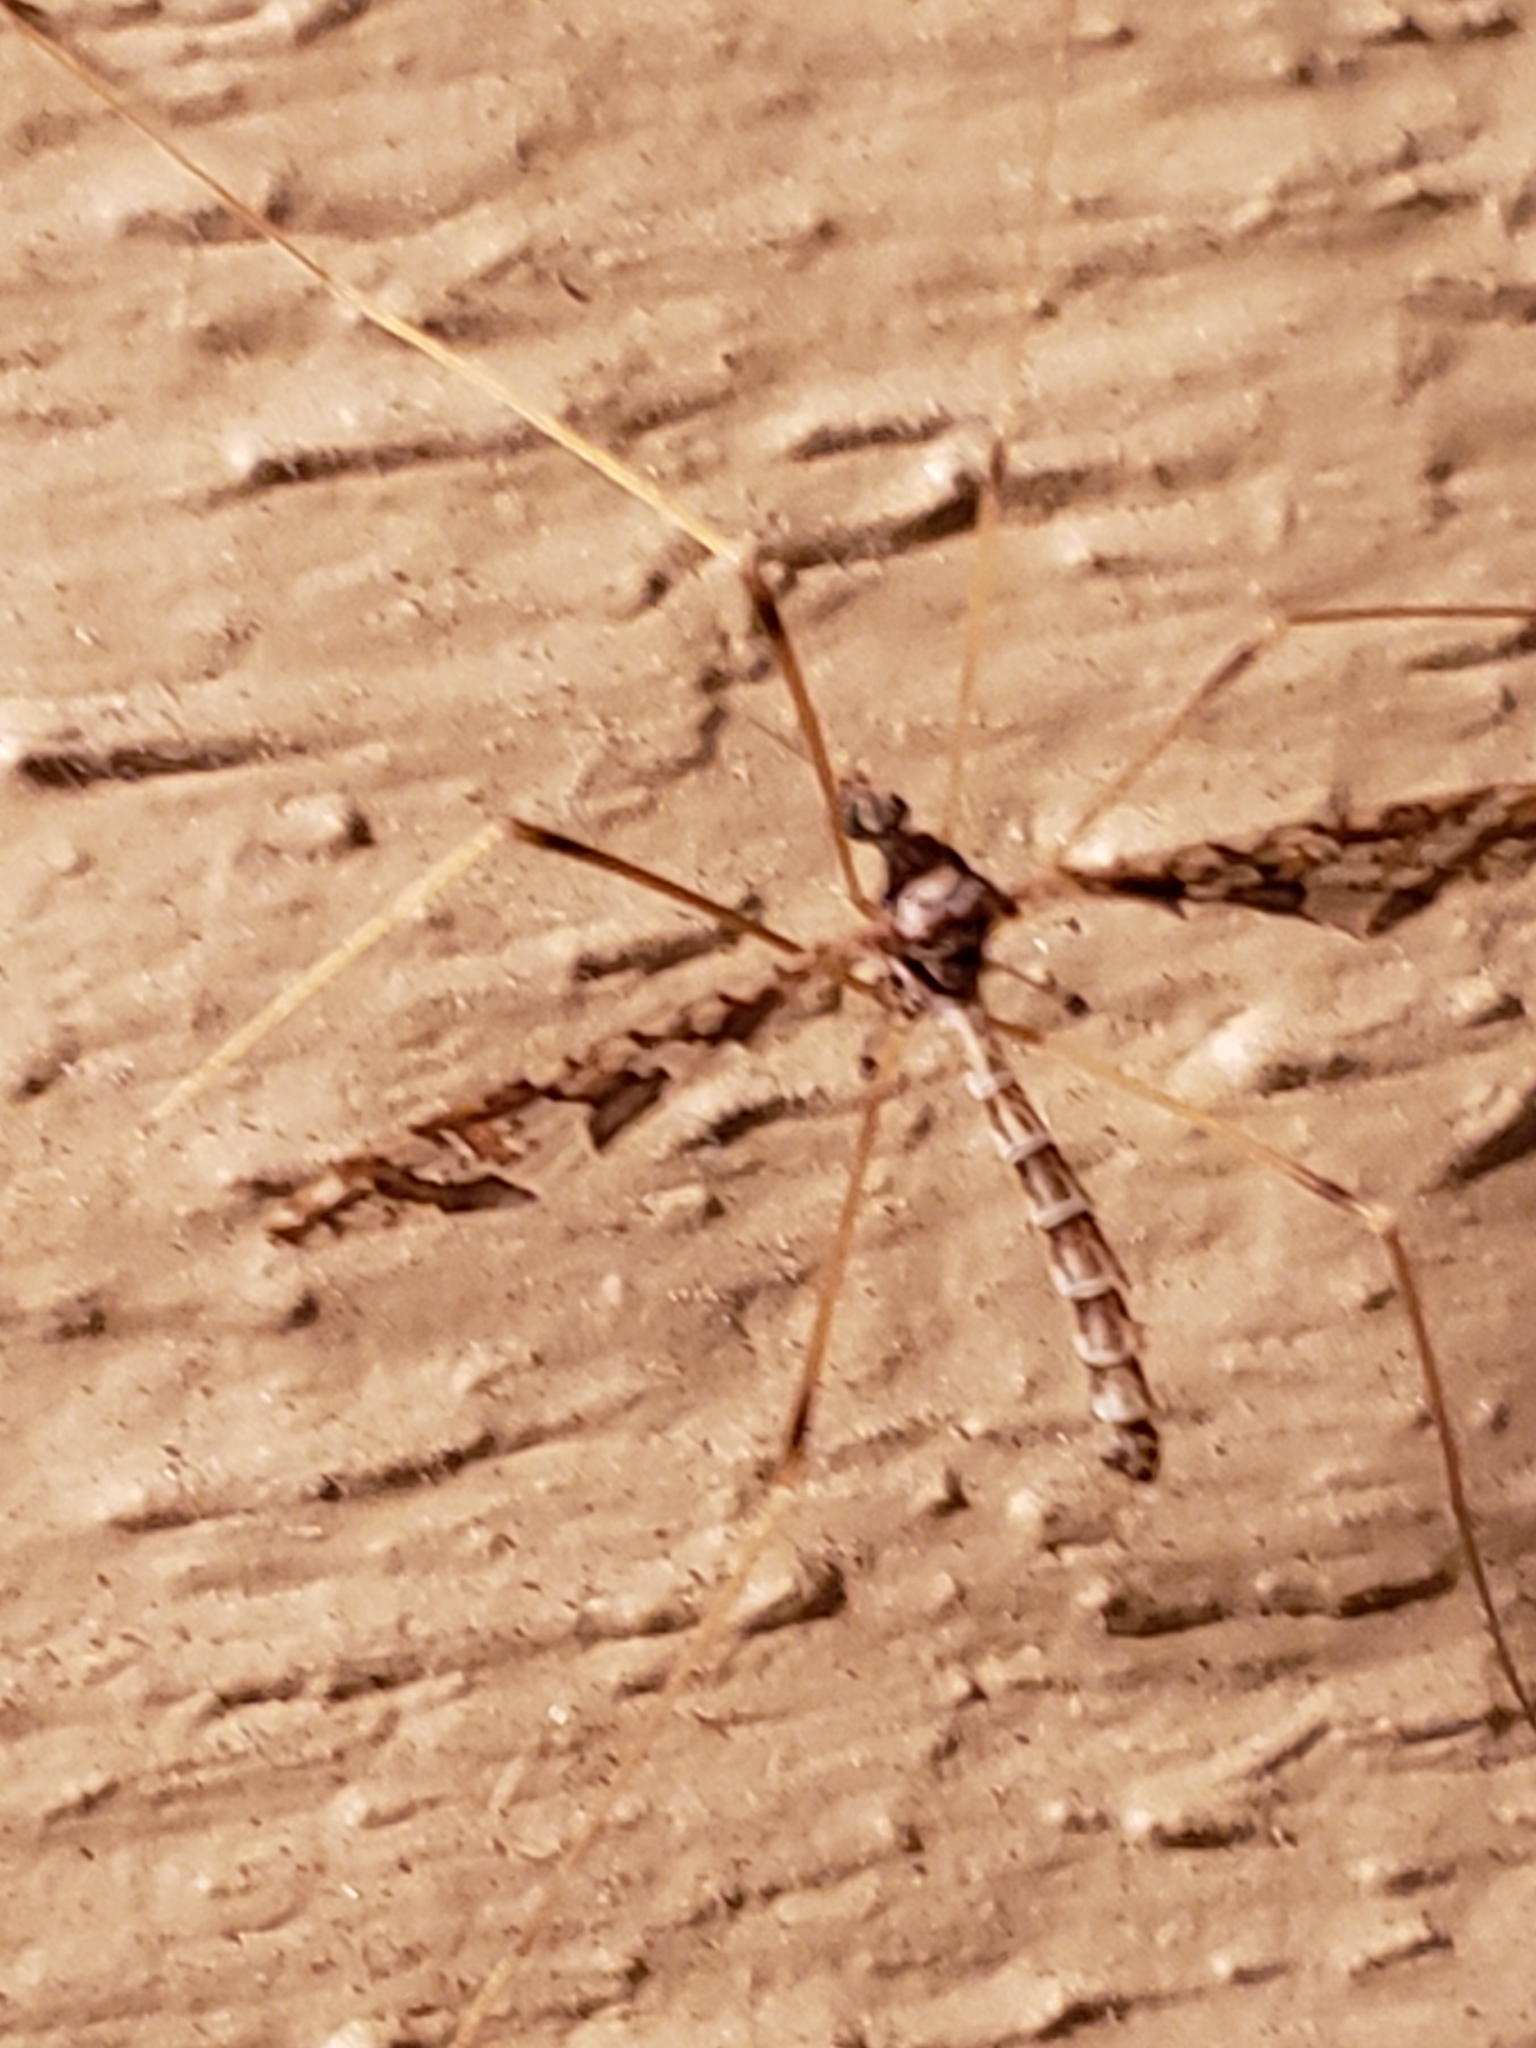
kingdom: Animalia
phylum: Arthropoda
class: Insecta
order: Diptera
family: Limoniidae
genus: Epiphragma
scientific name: Epiphragma solatrix
